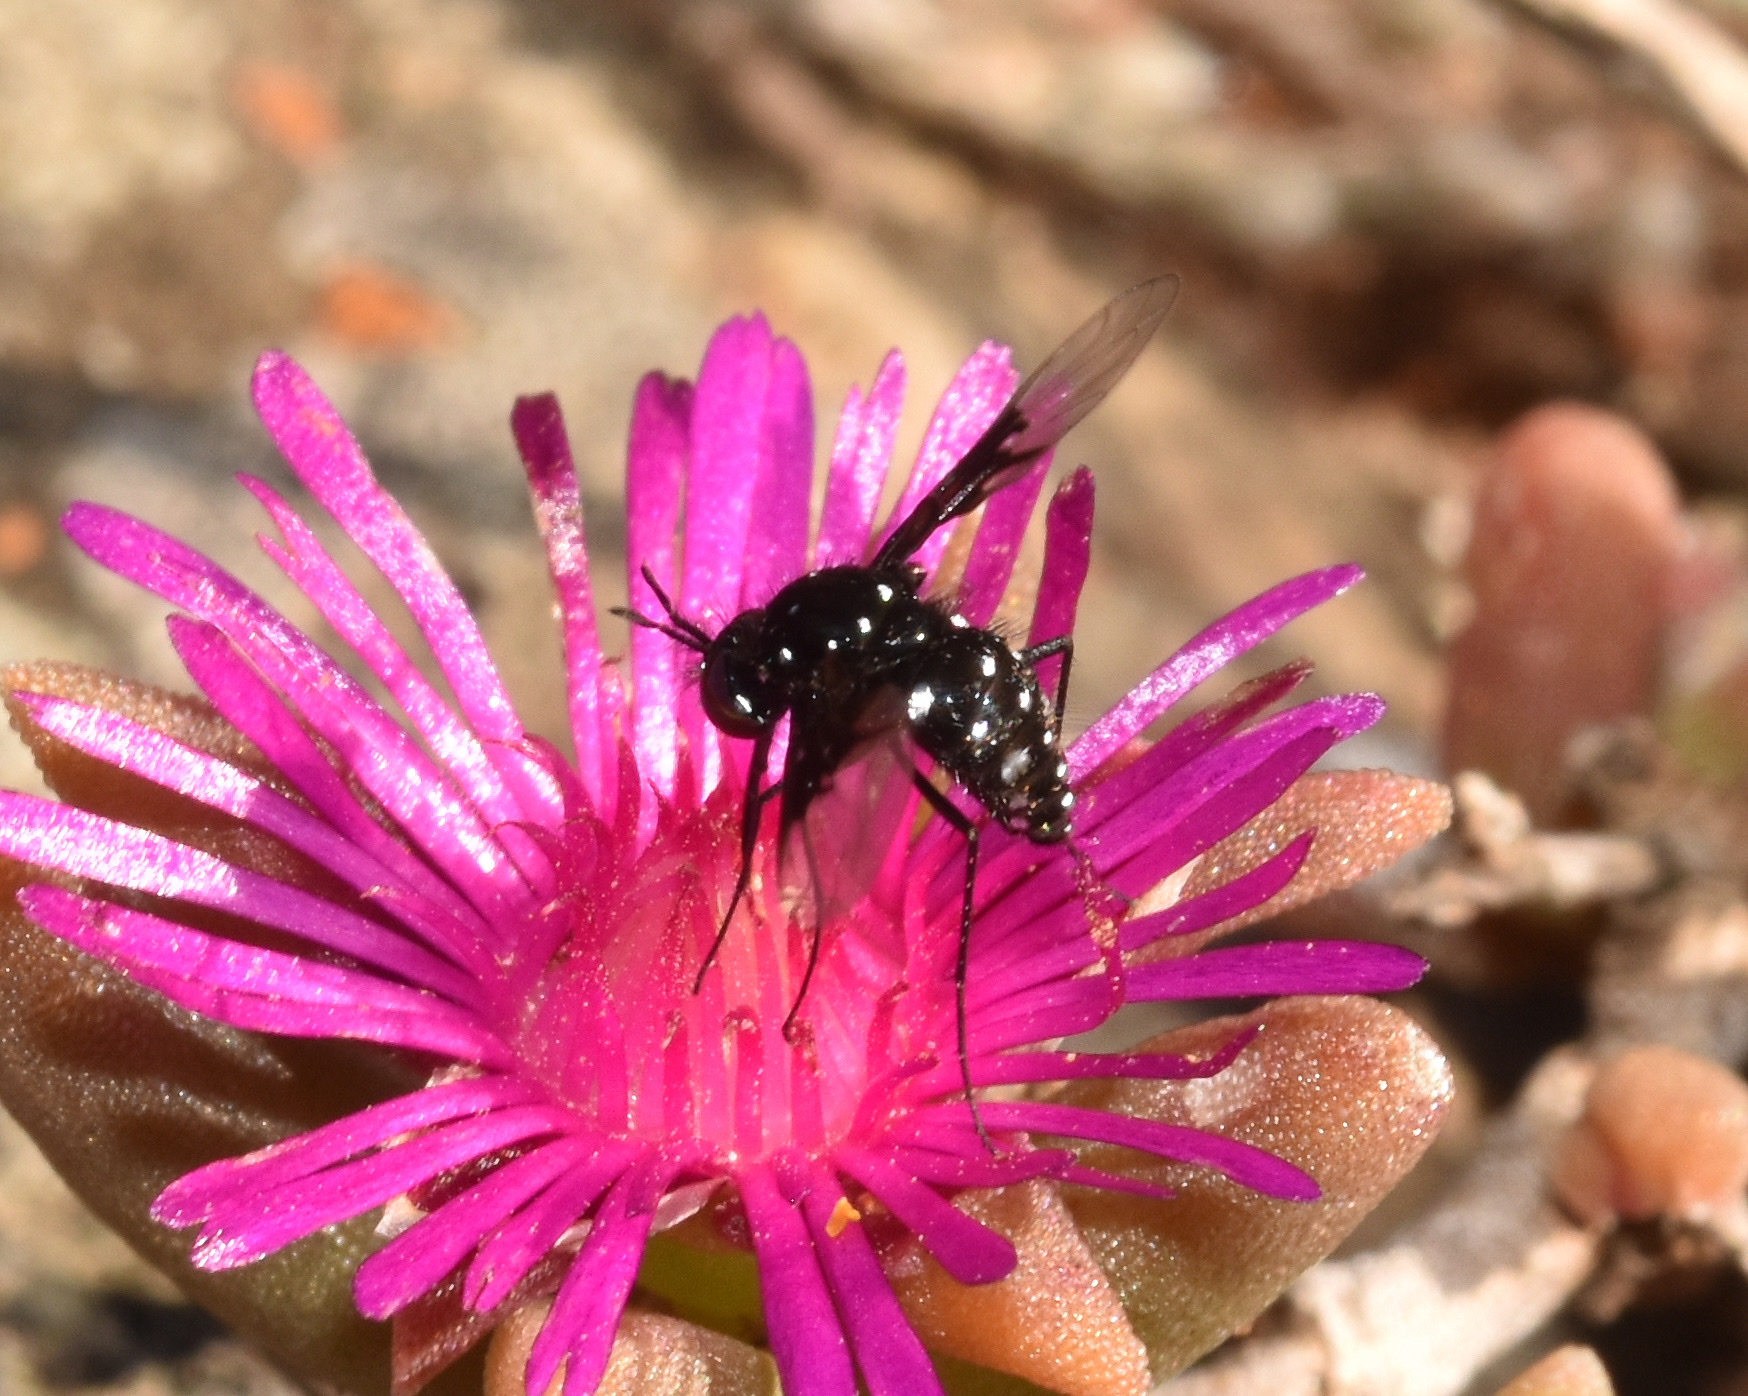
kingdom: Animalia
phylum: Arthropoda
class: Insecta
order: Diptera
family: Bombyliidae
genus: Bombylella
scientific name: Bombylella delicata
